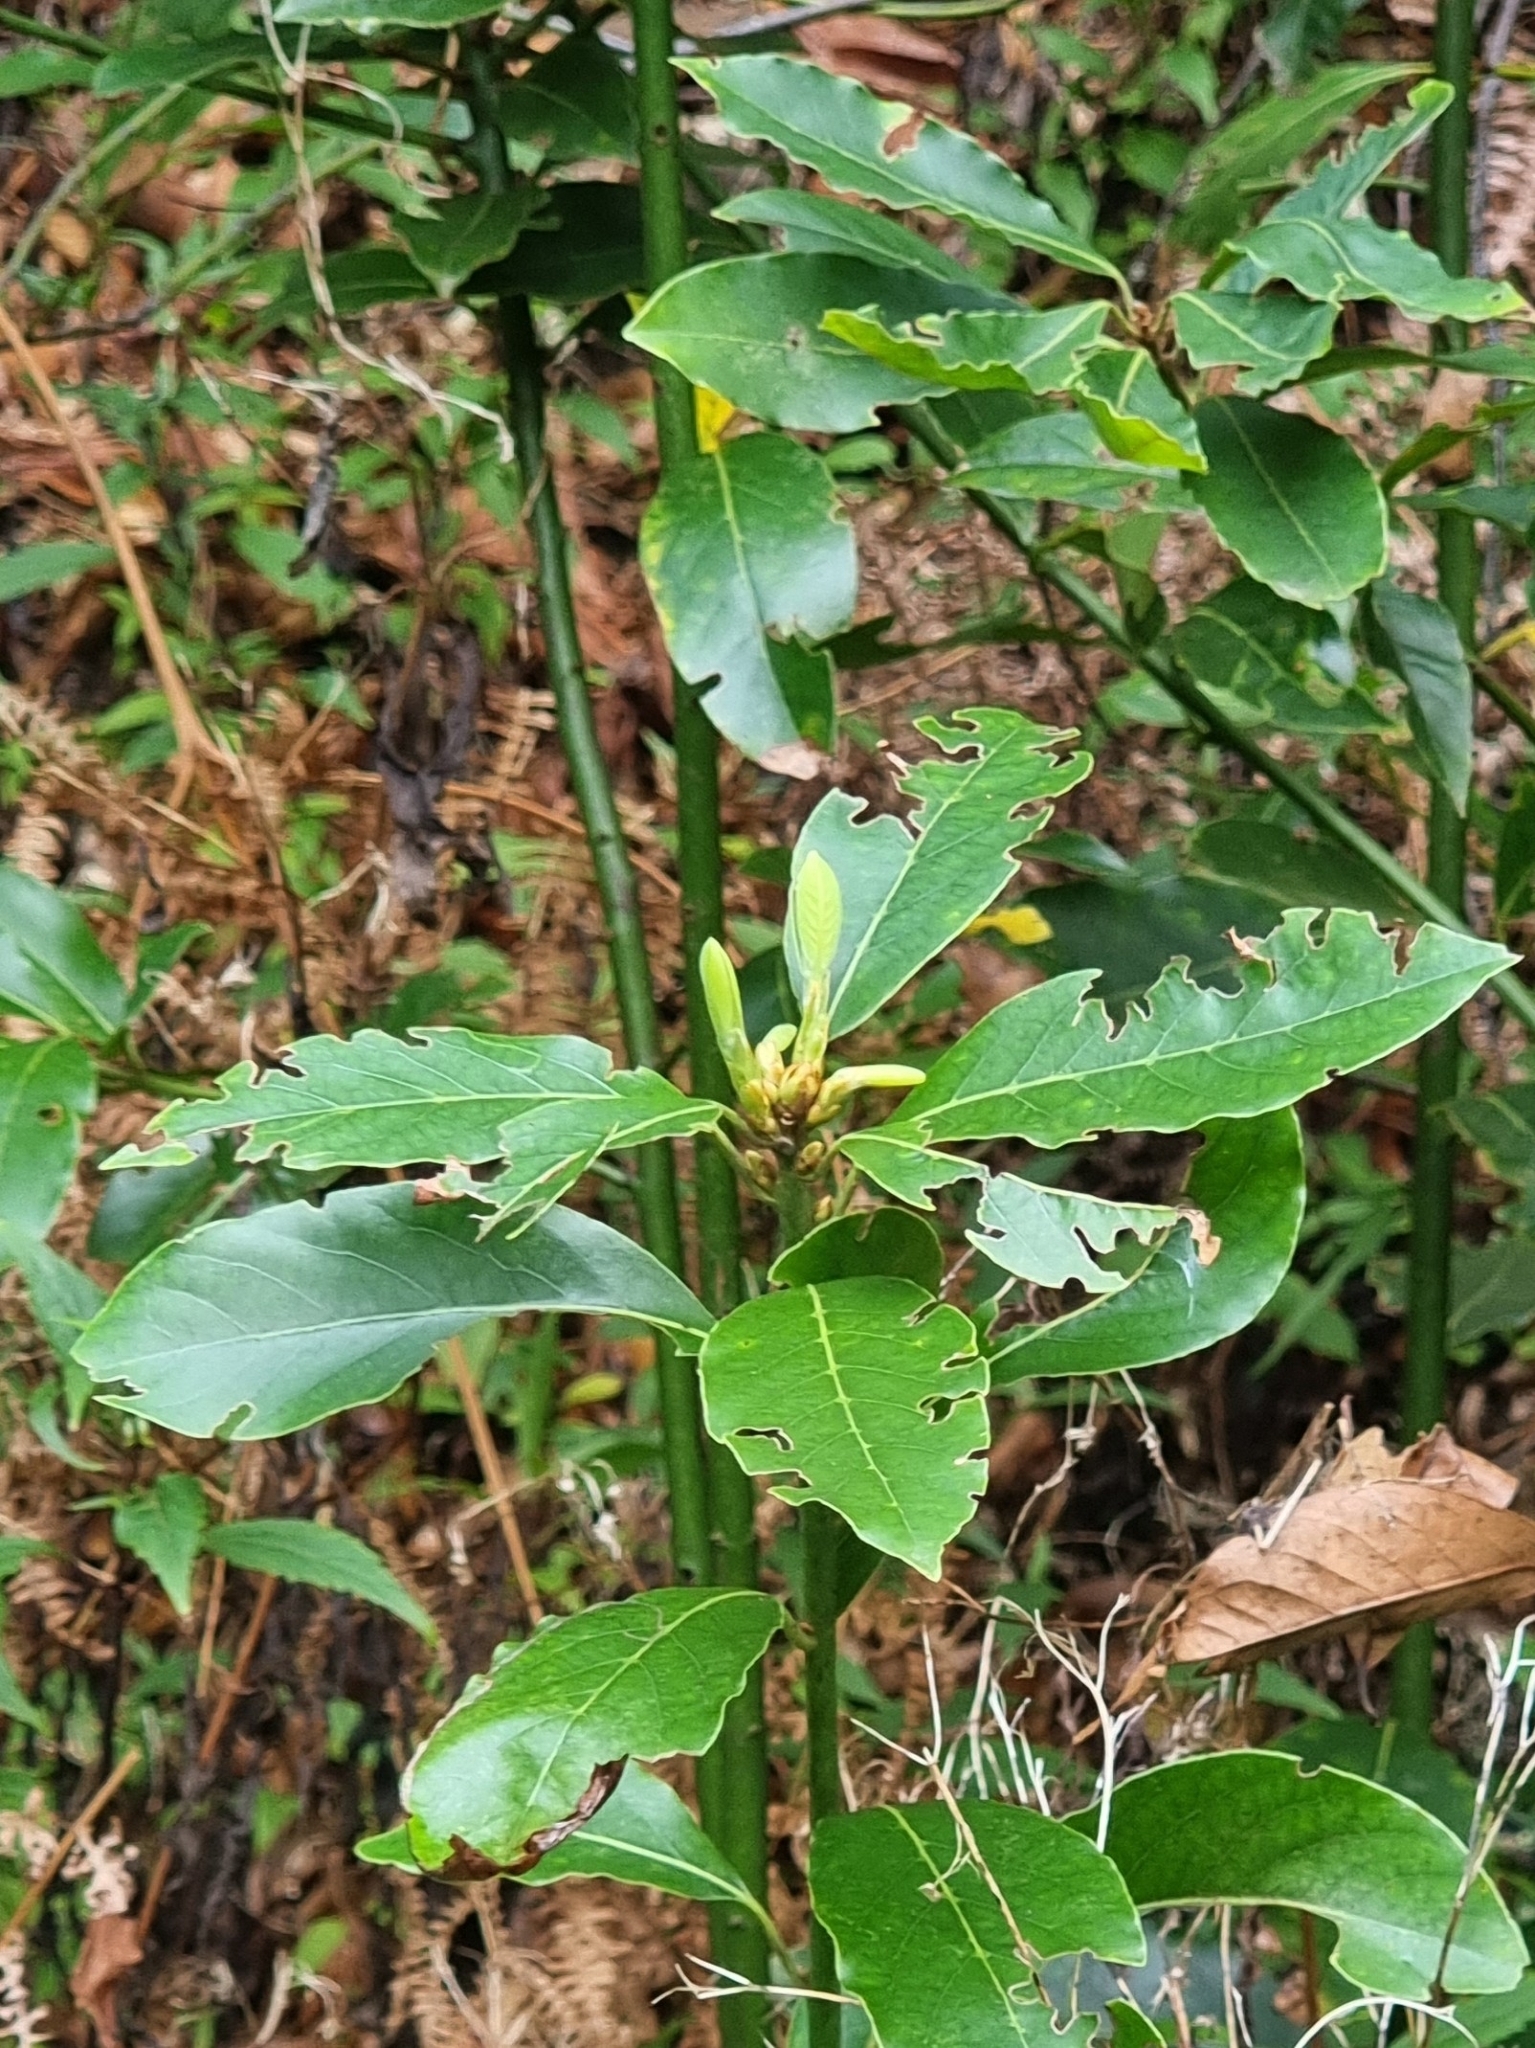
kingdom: Plantae
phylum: Tracheophyta
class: Magnoliopsida
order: Laurales
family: Lauraceae
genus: Laurus
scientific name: Laurus novocanariensis
